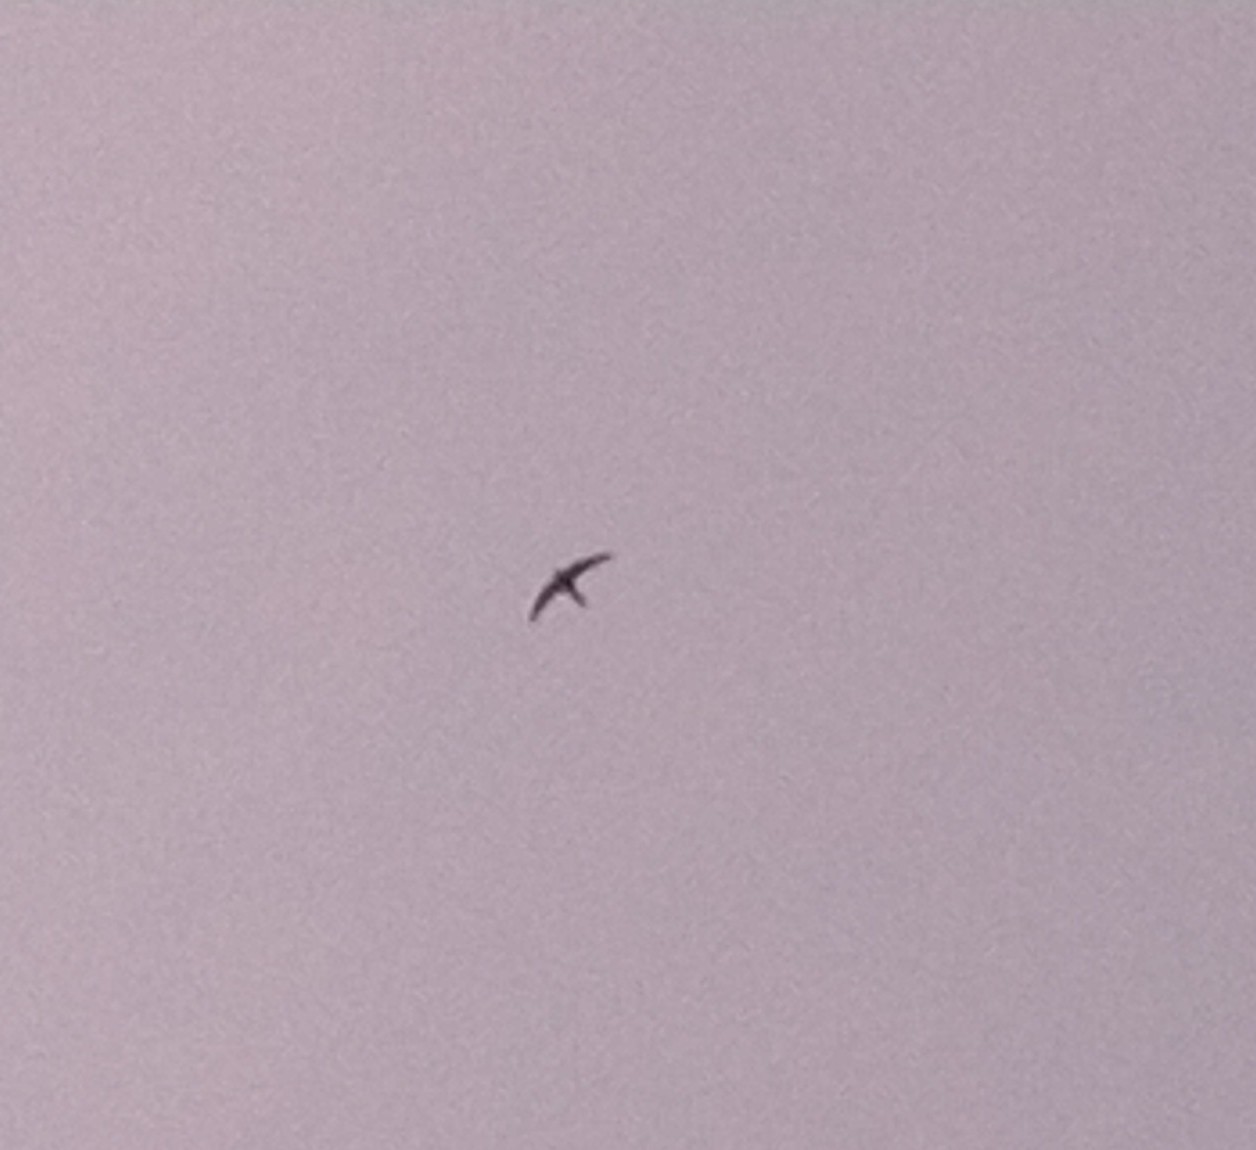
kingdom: Animalia
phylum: Chordata
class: Aves
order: Apodiformes
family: Apodidae
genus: Apus
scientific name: Apus apus
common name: Common swift
